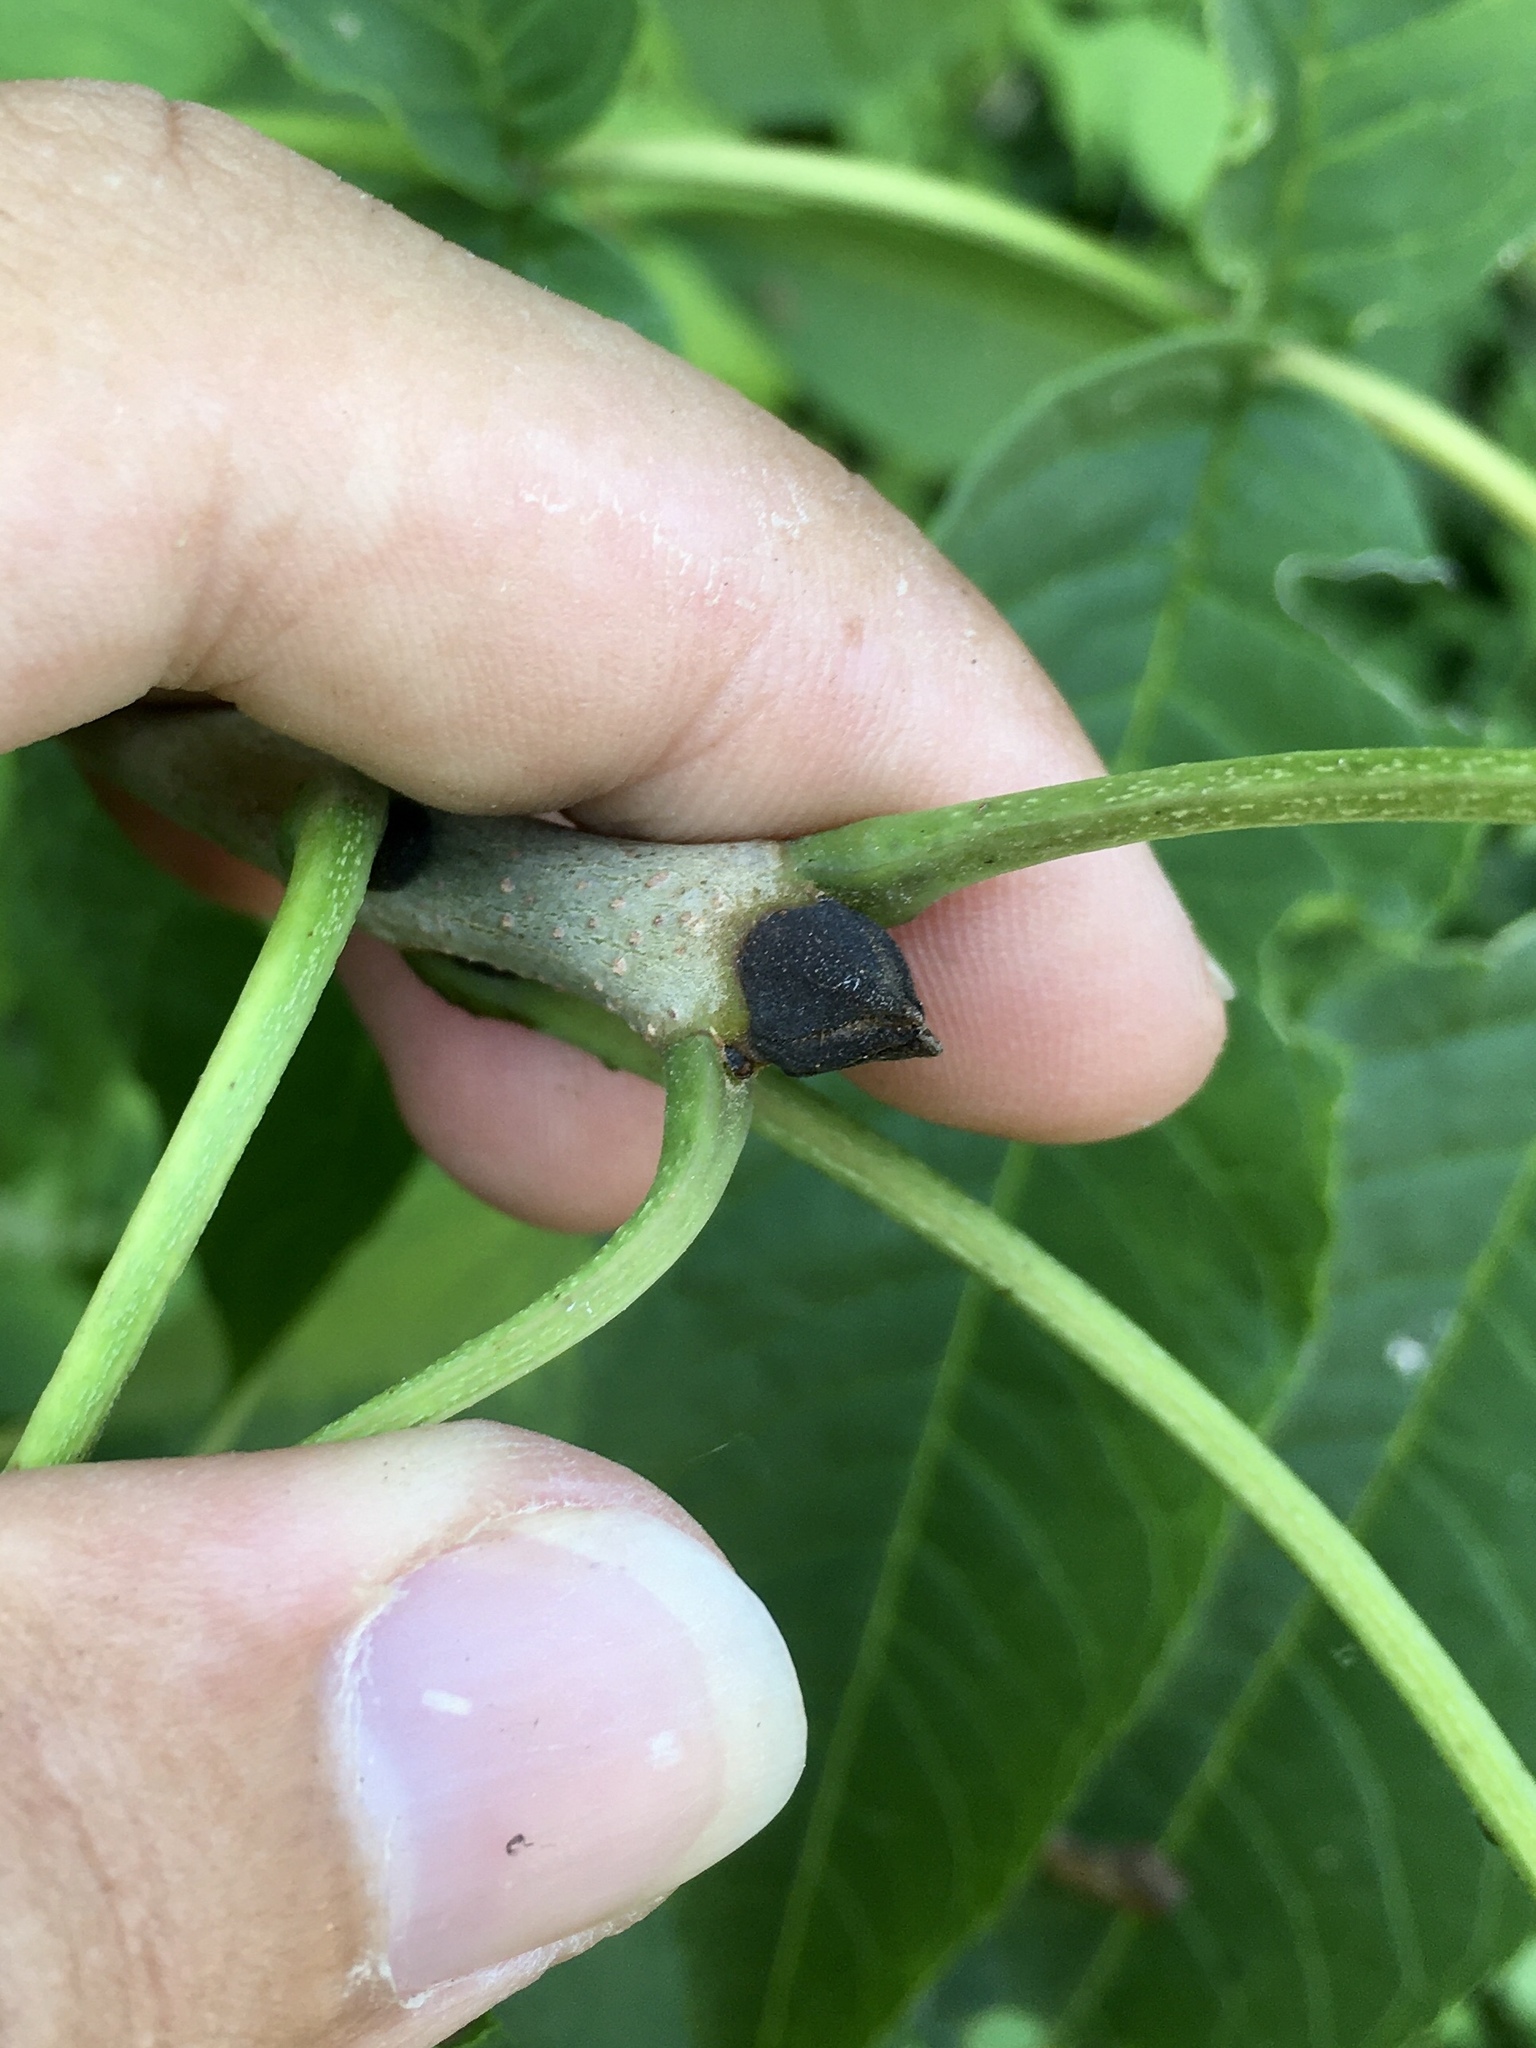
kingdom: Plantae
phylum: Tracheophyta
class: Magnoliopsida
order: Lamiales
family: Oleaceae
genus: Fraxinus
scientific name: Fraxinus nigra
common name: Black ash
